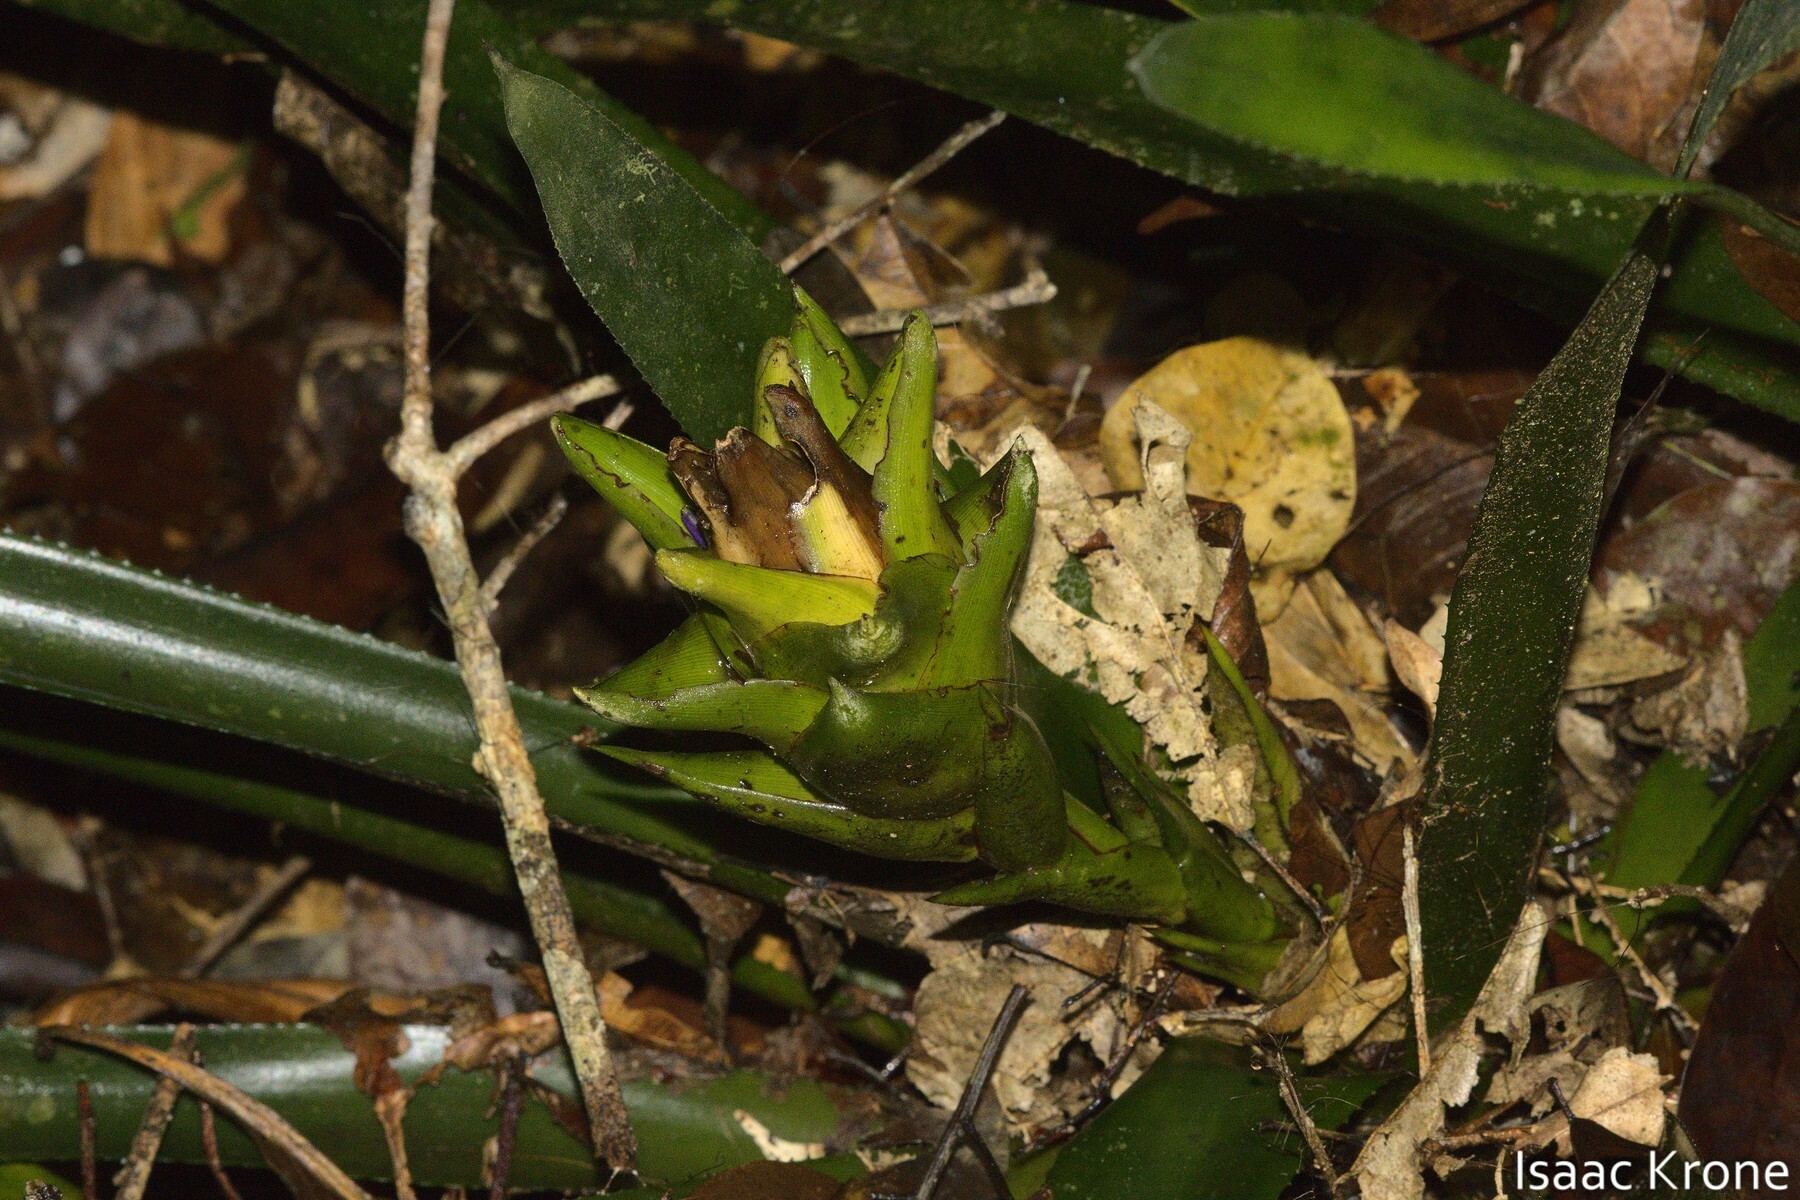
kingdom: Plantae
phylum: Tracheophyta
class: Liliopsida
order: Poales
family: Bromeliaceae
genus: Aechmea
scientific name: Aechmea nidularioides
